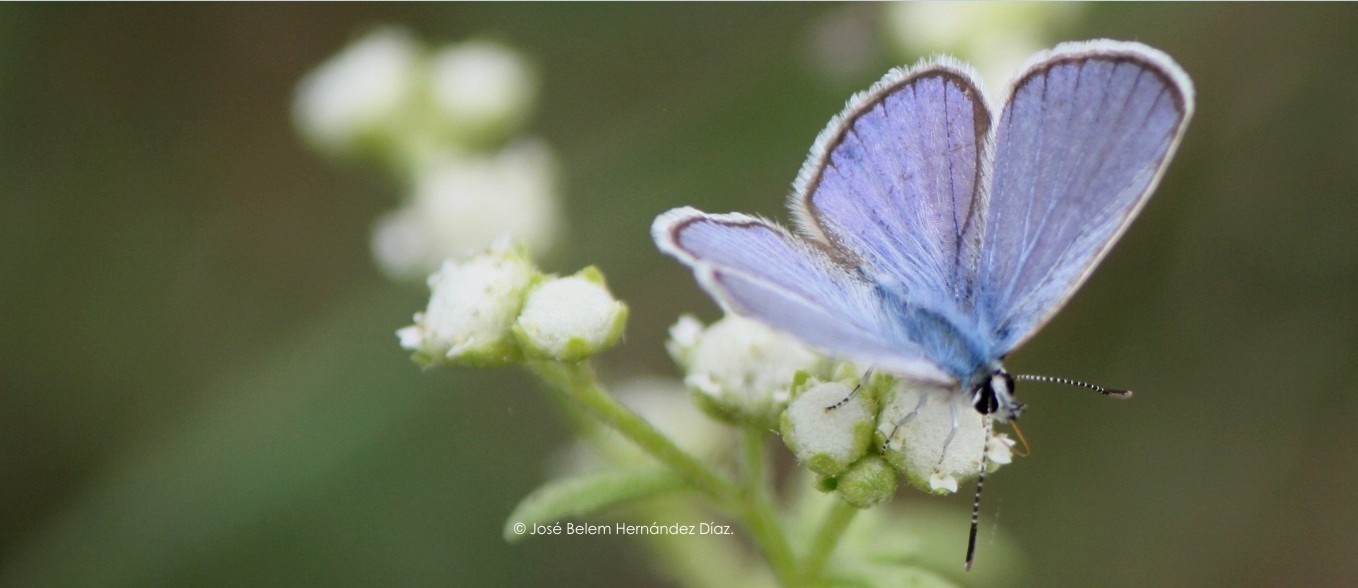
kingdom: Animalia
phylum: Arthropoda
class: Insecta
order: Lepidoptera
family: Lycaenidae
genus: Hemiargus
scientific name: Hemiargus ceraunus
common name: Ceraunus blue
